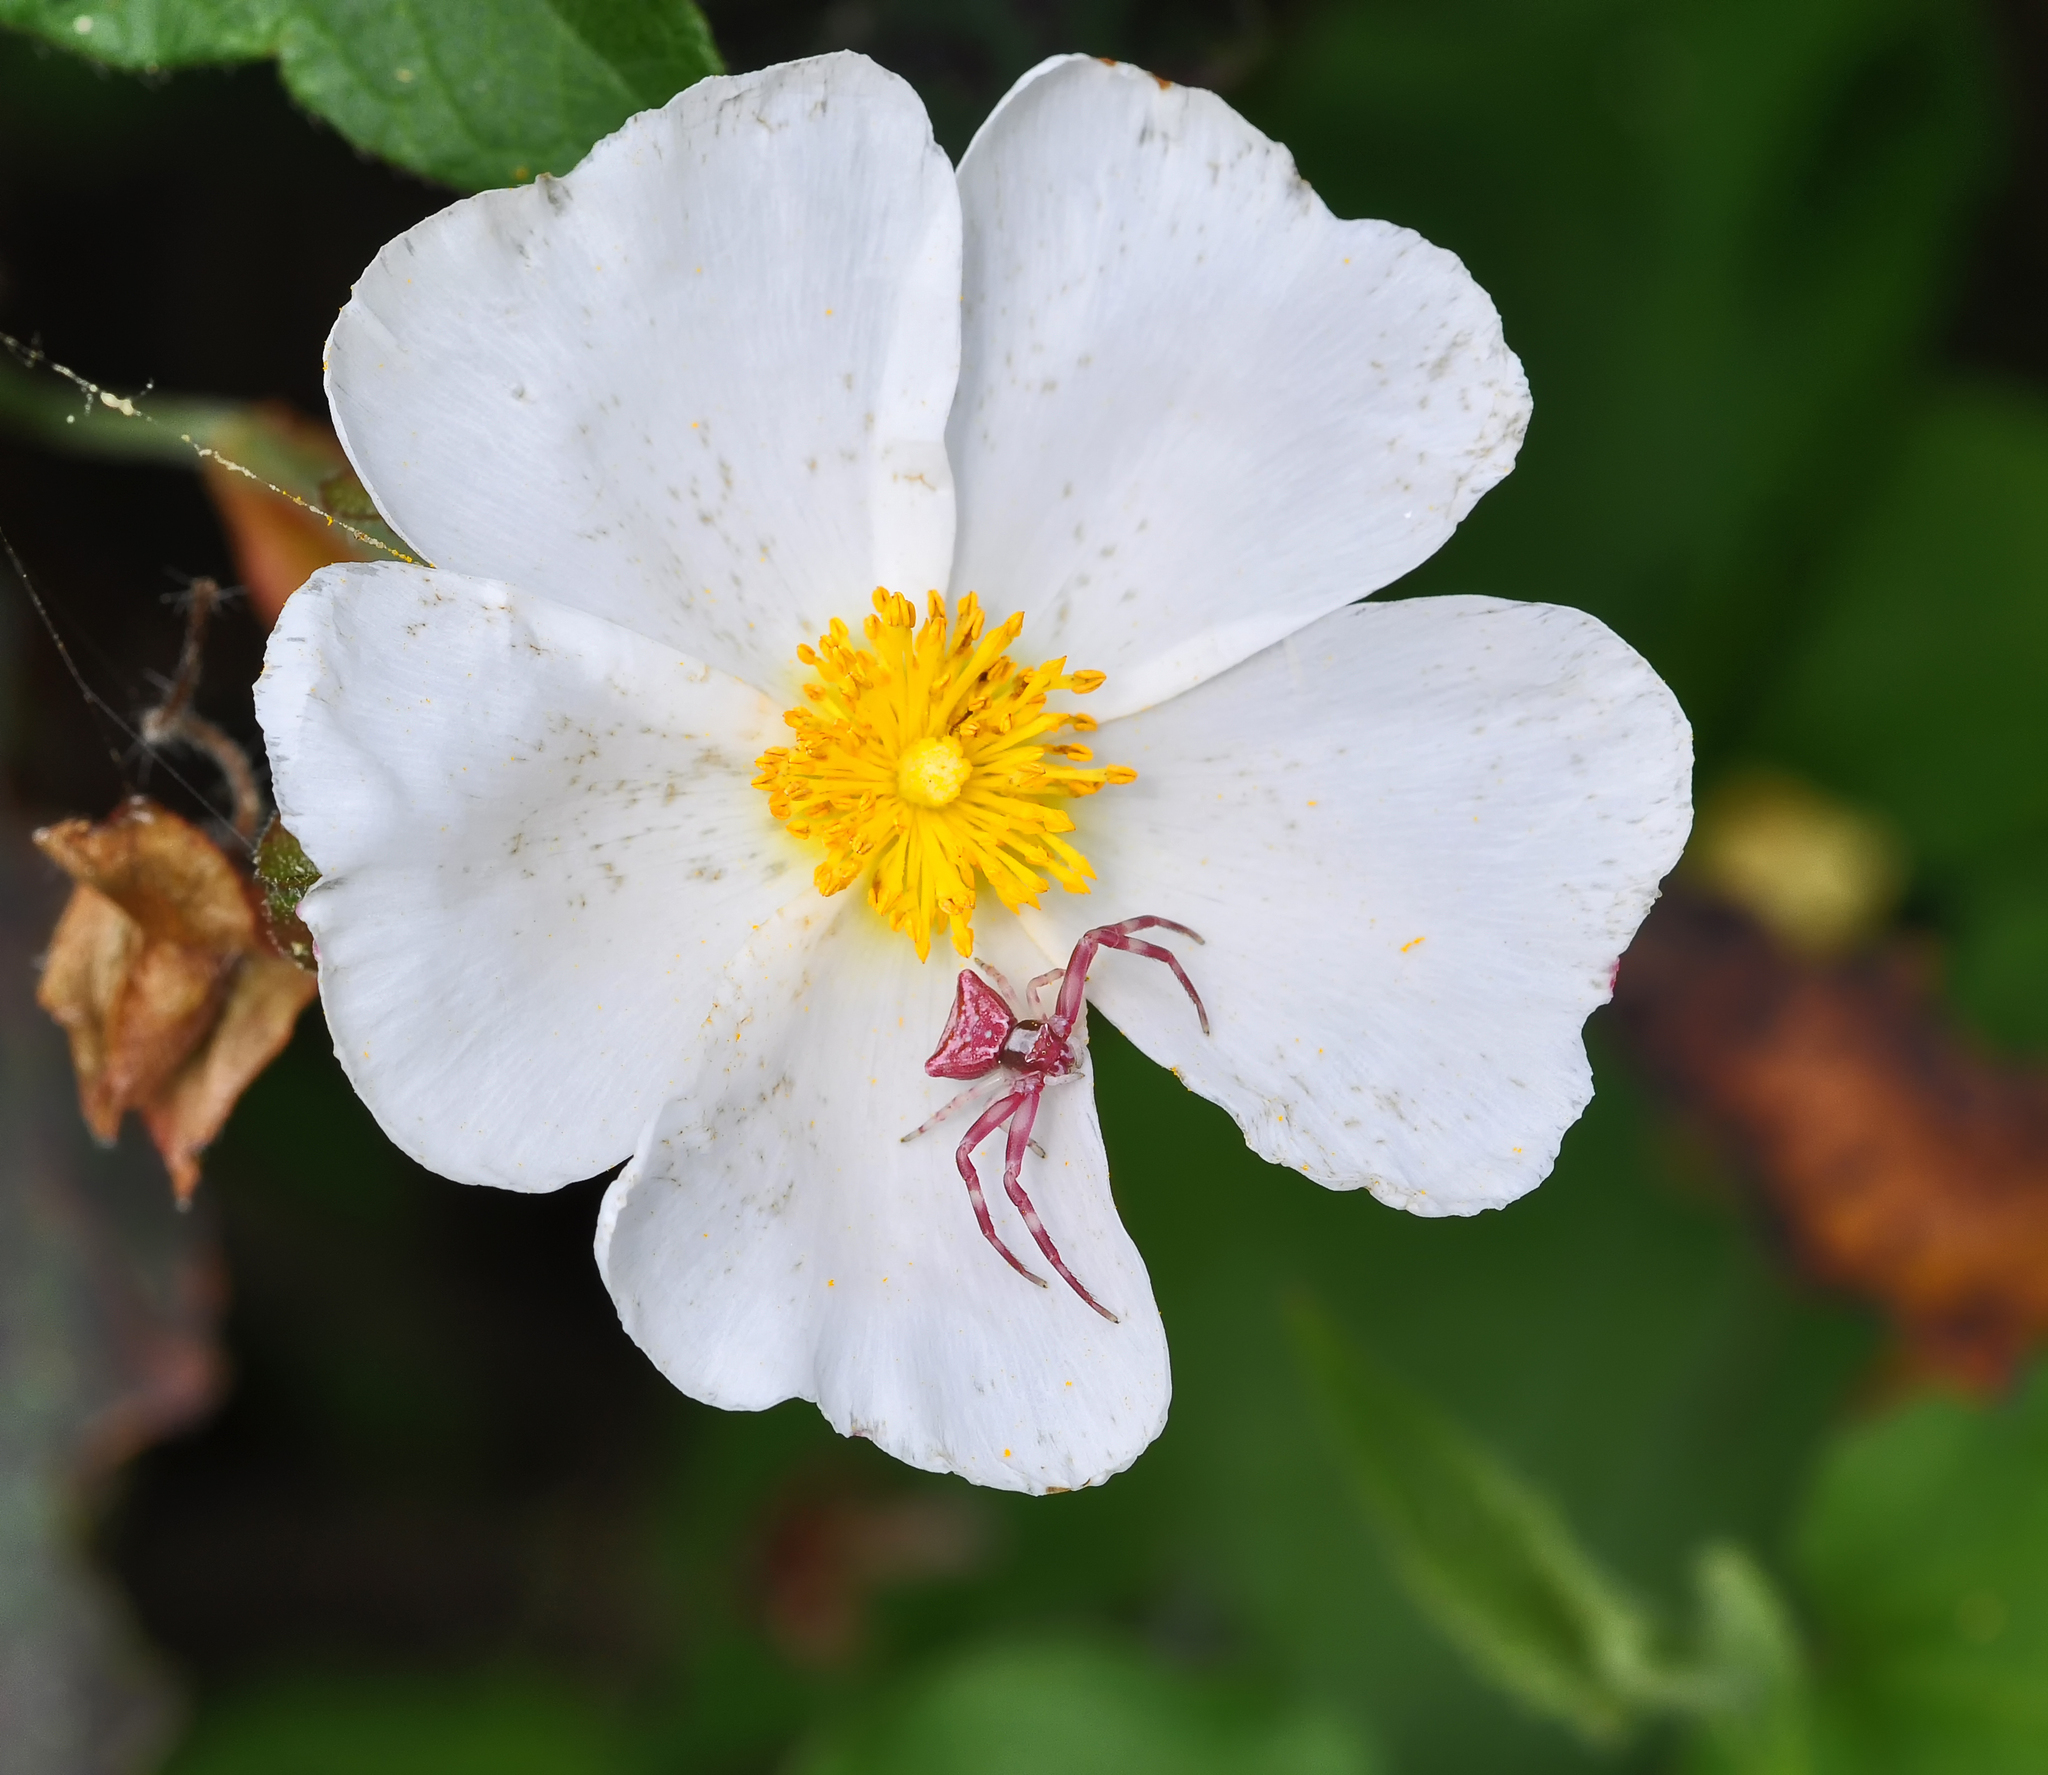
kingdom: Animalia
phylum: Arthropoda
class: Arachnida
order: Araneae
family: Thomisidae
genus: Thomisus
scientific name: Thomisus onustus
